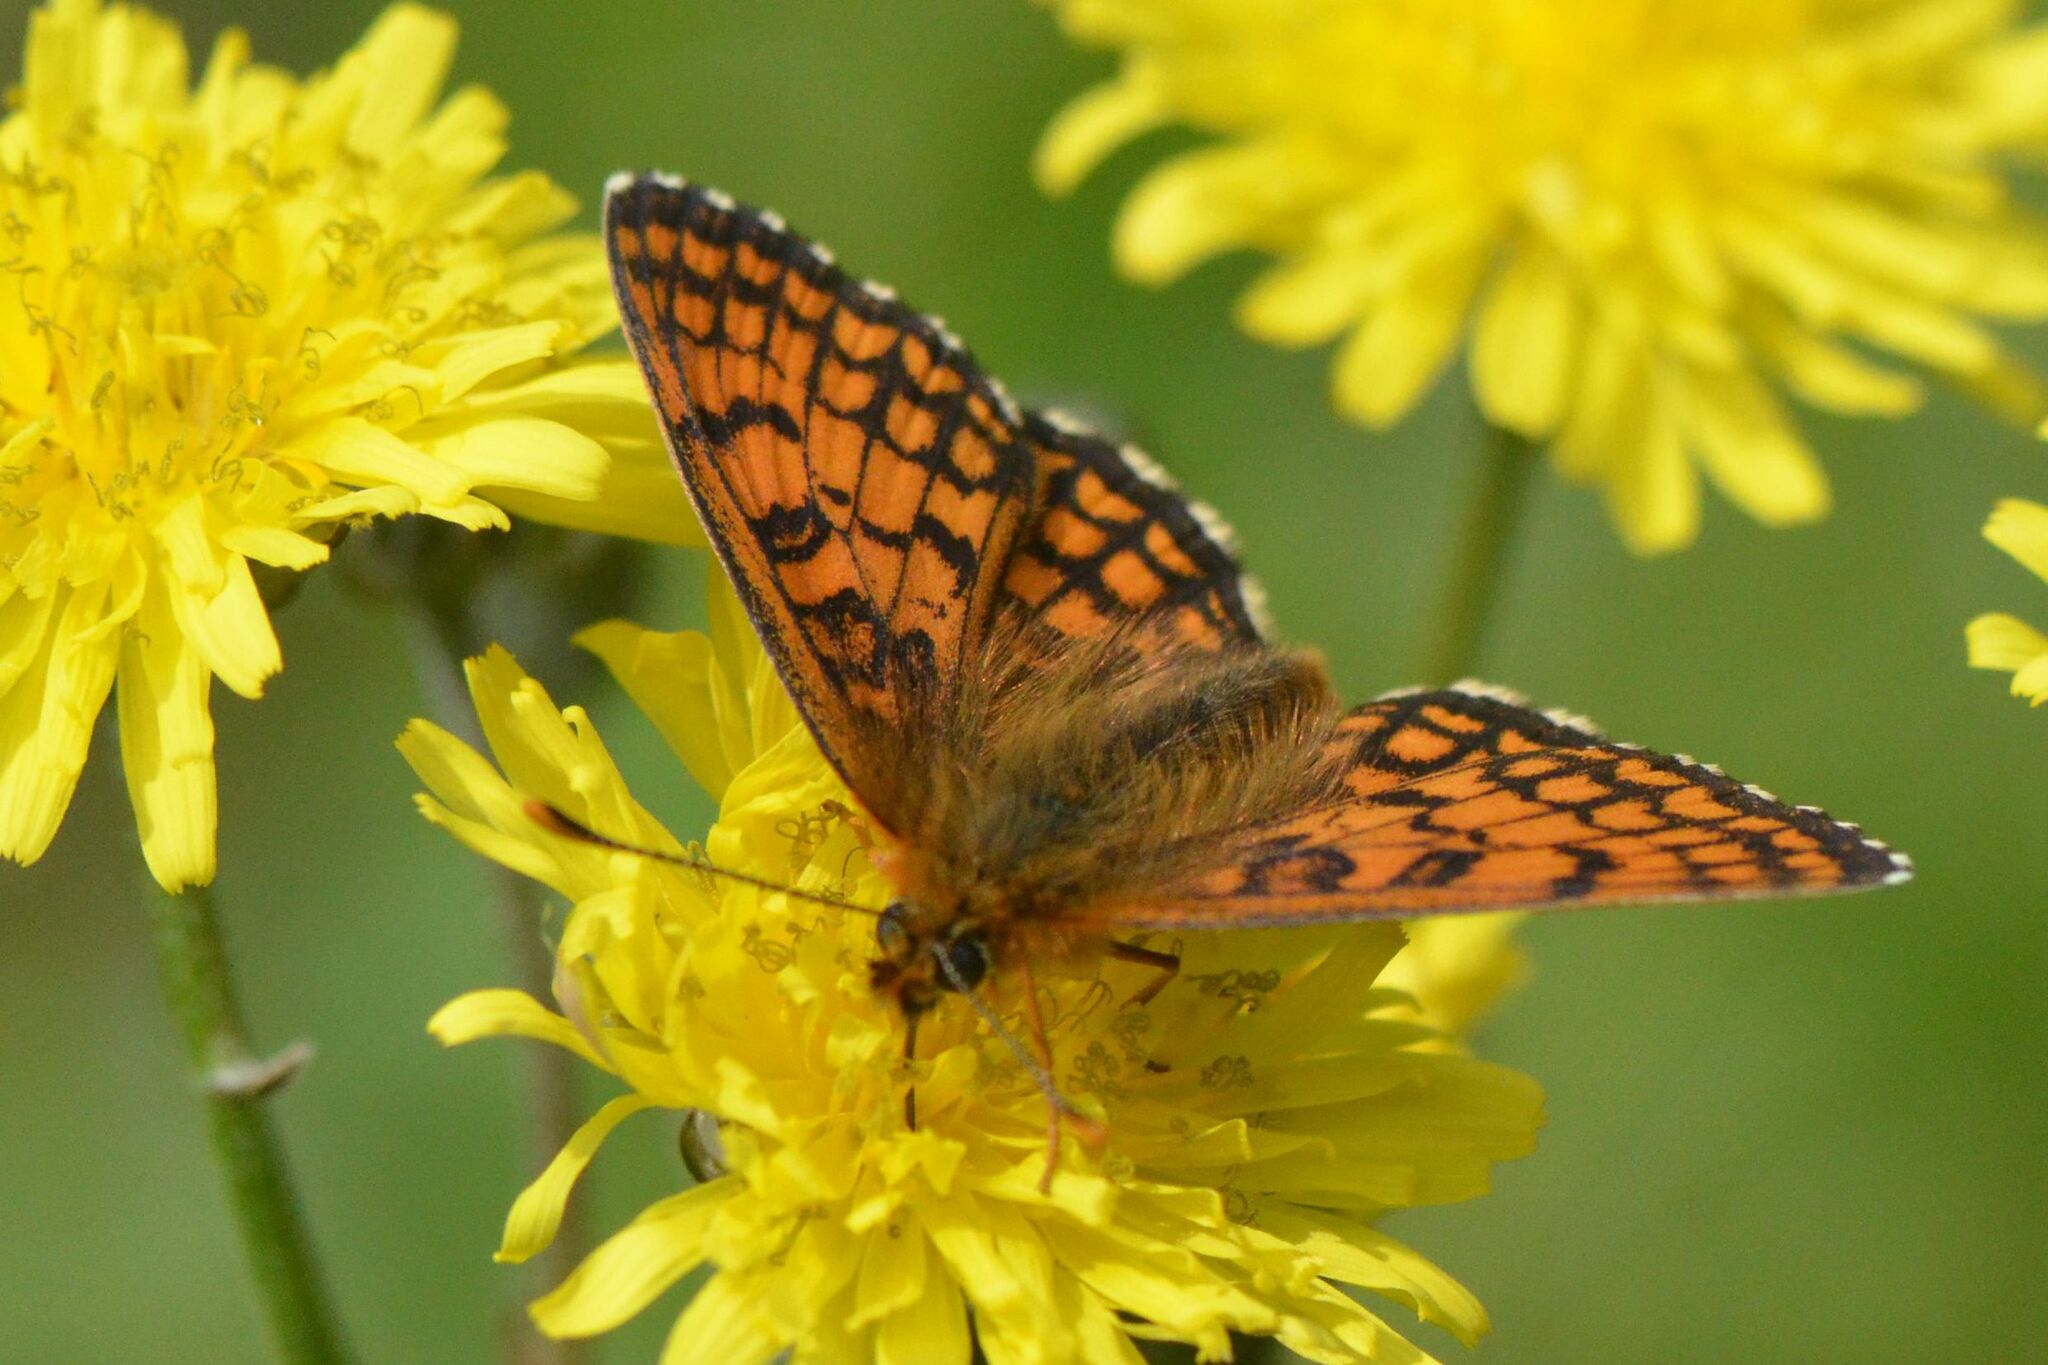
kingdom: Animalia
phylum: Arthropoda
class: Insecta
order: Lepidoptera
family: Nymphalidae
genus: Mellicta
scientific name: Mellicta parthenoides
